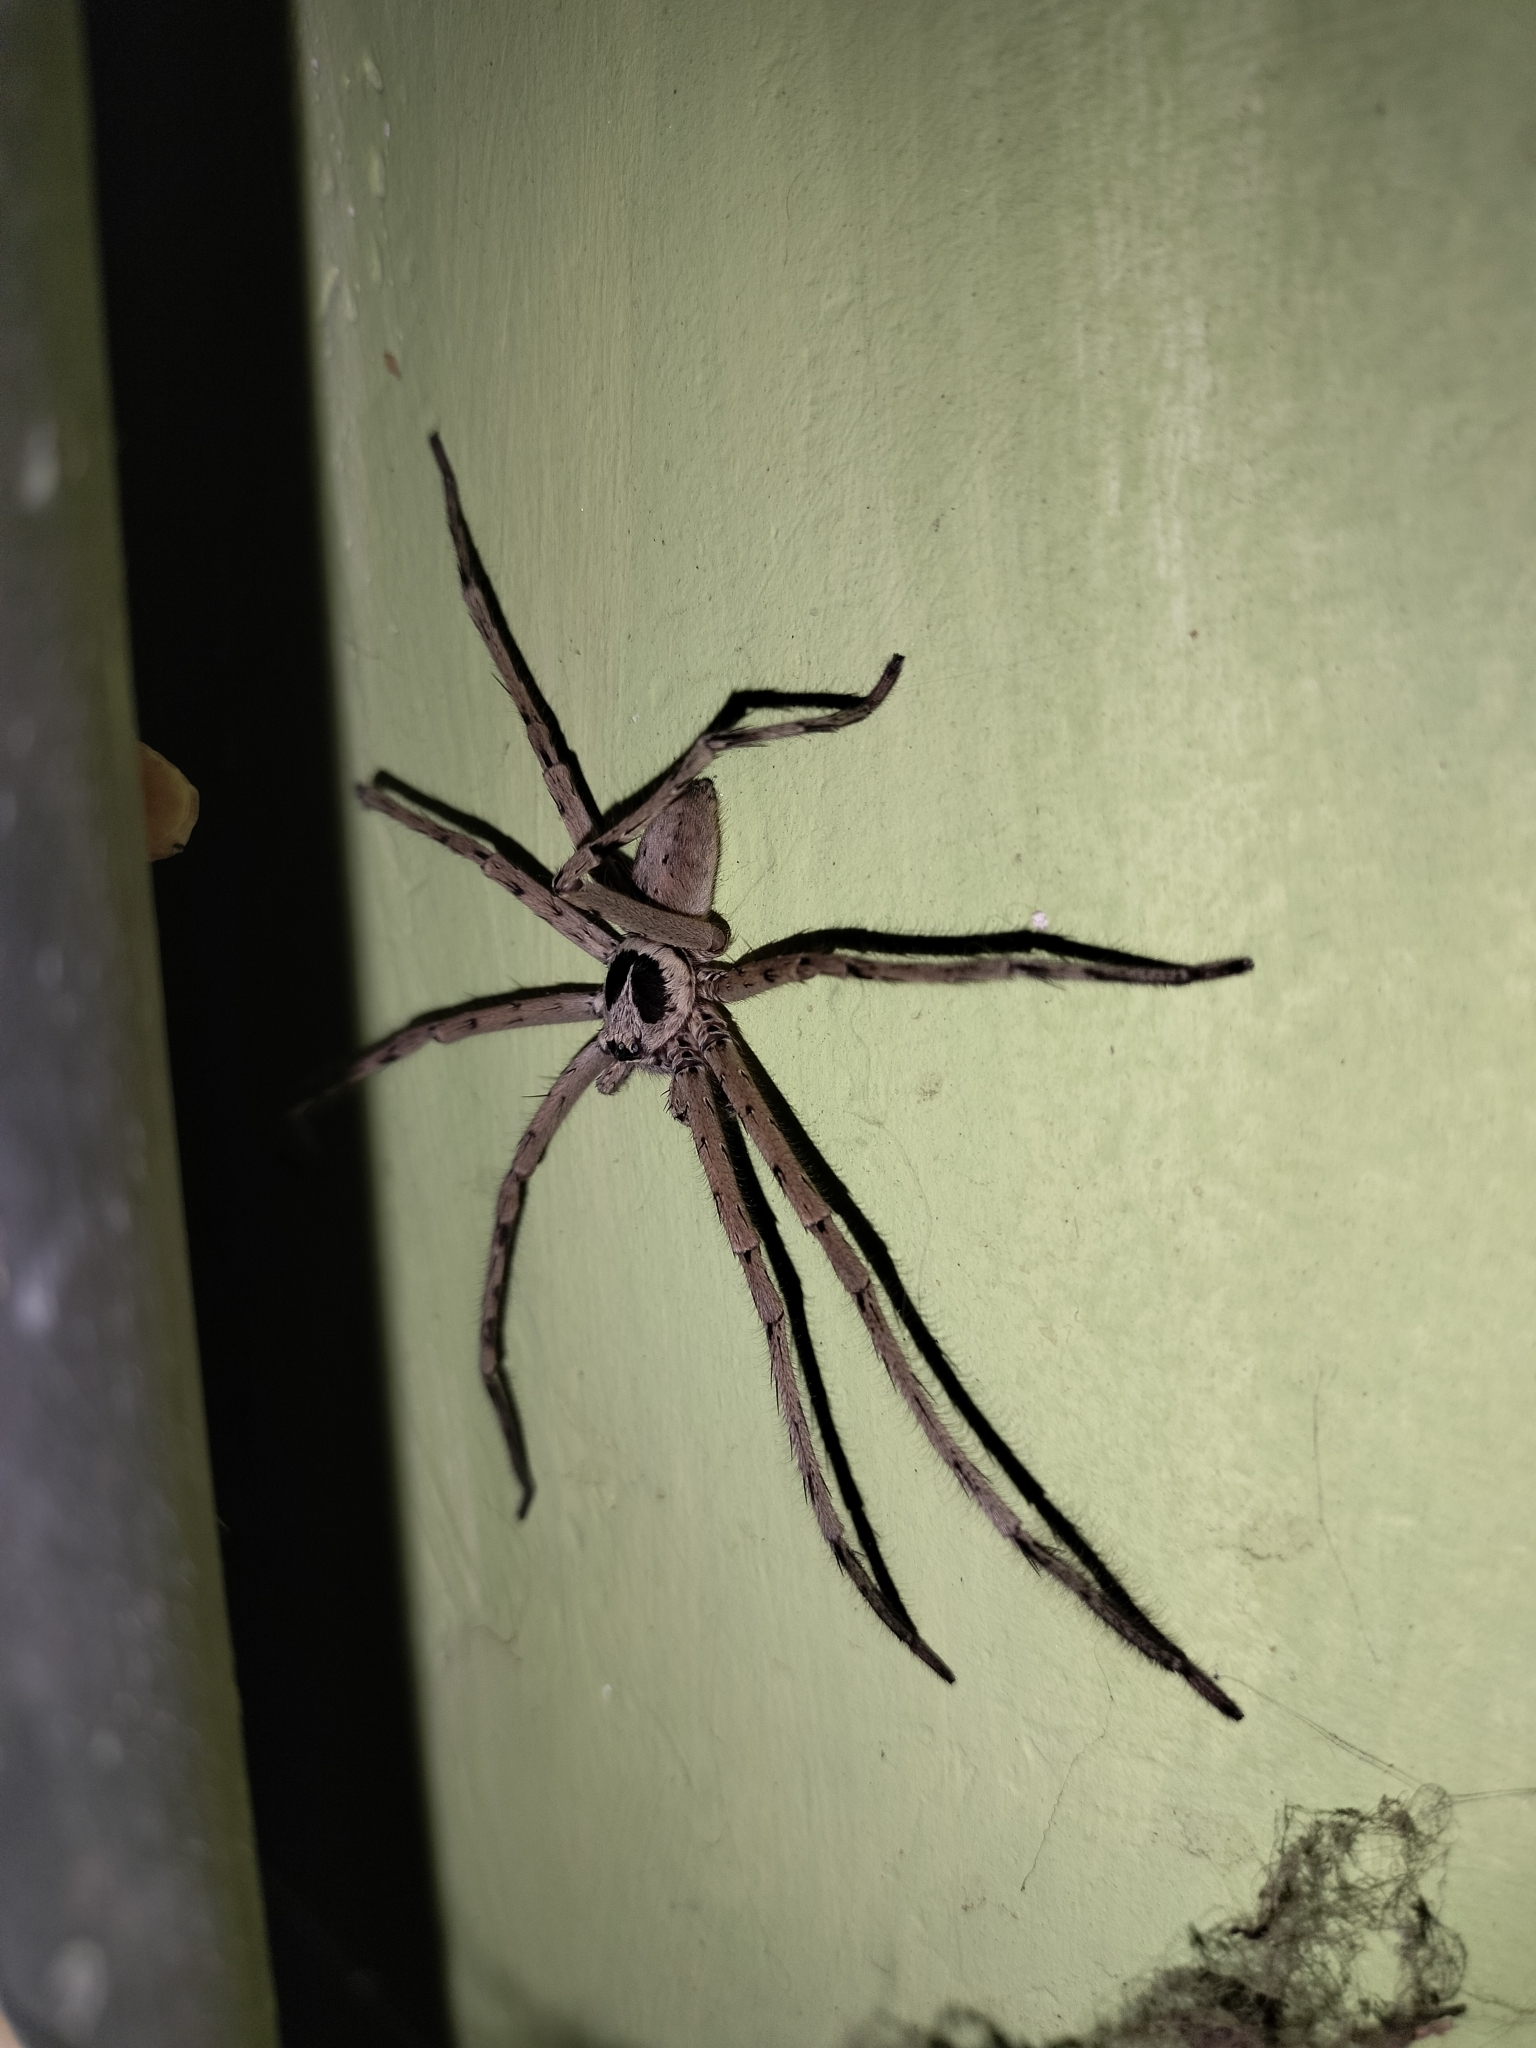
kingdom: Animalia
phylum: Arthropoda
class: Arachnida
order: Araneae
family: Sparassidae
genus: Heteropoda
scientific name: Heteropoda venatoria
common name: Huntsman spider
